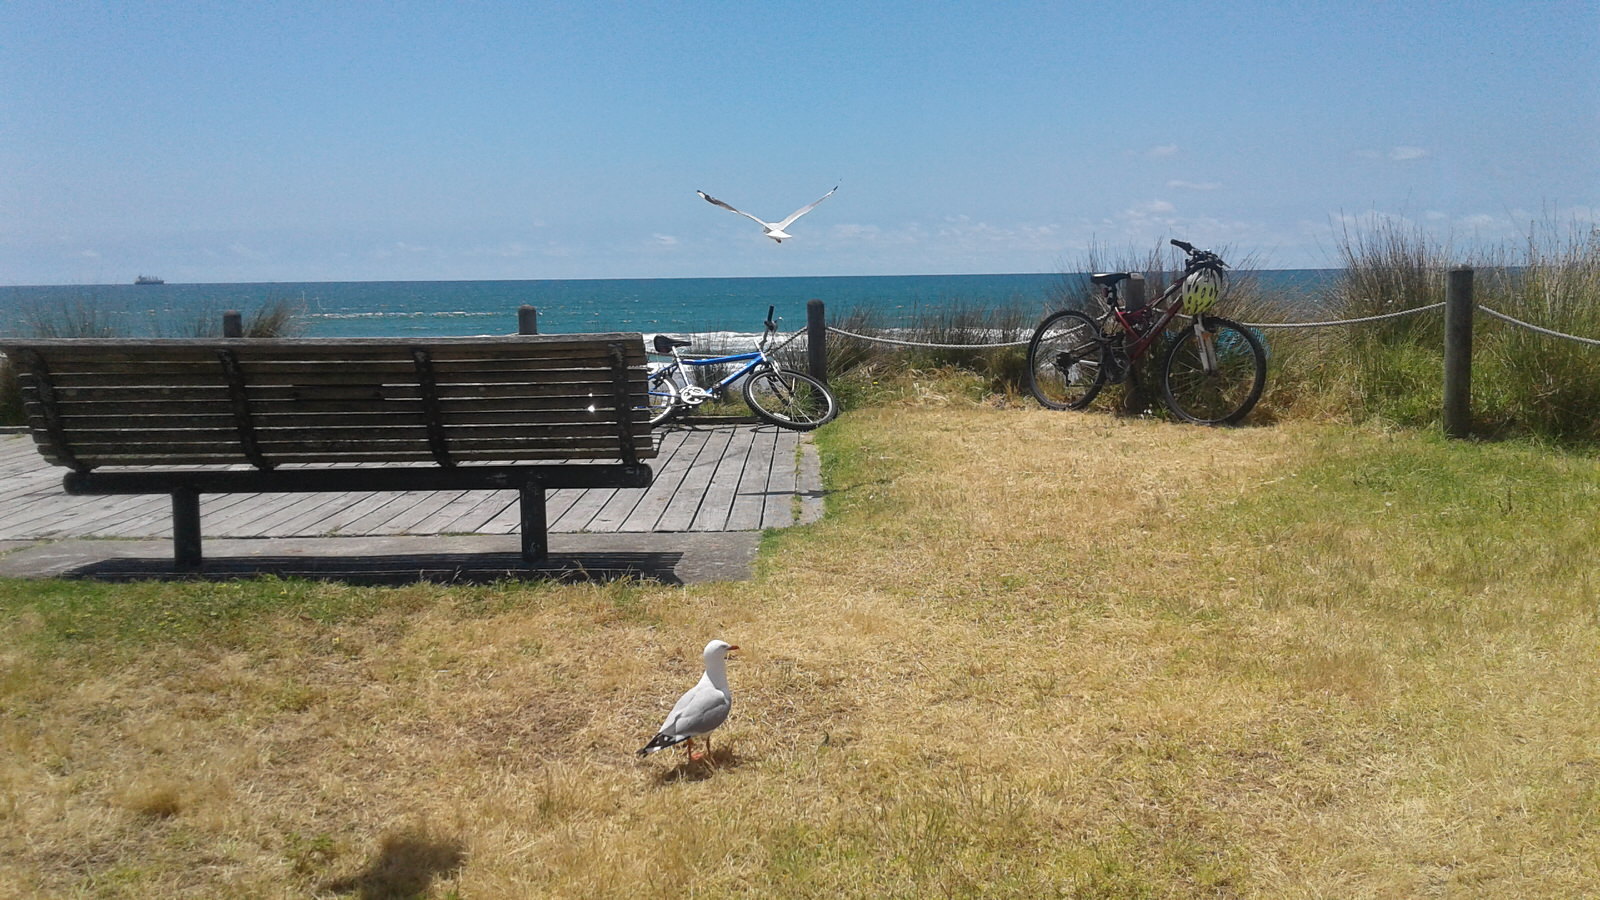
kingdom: Animalia
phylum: Chordata
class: Aves
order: Charadriiformes
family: Laridae
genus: Chroicocephalus
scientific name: Chroicocephalus novaehollandiae
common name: Silver gull
